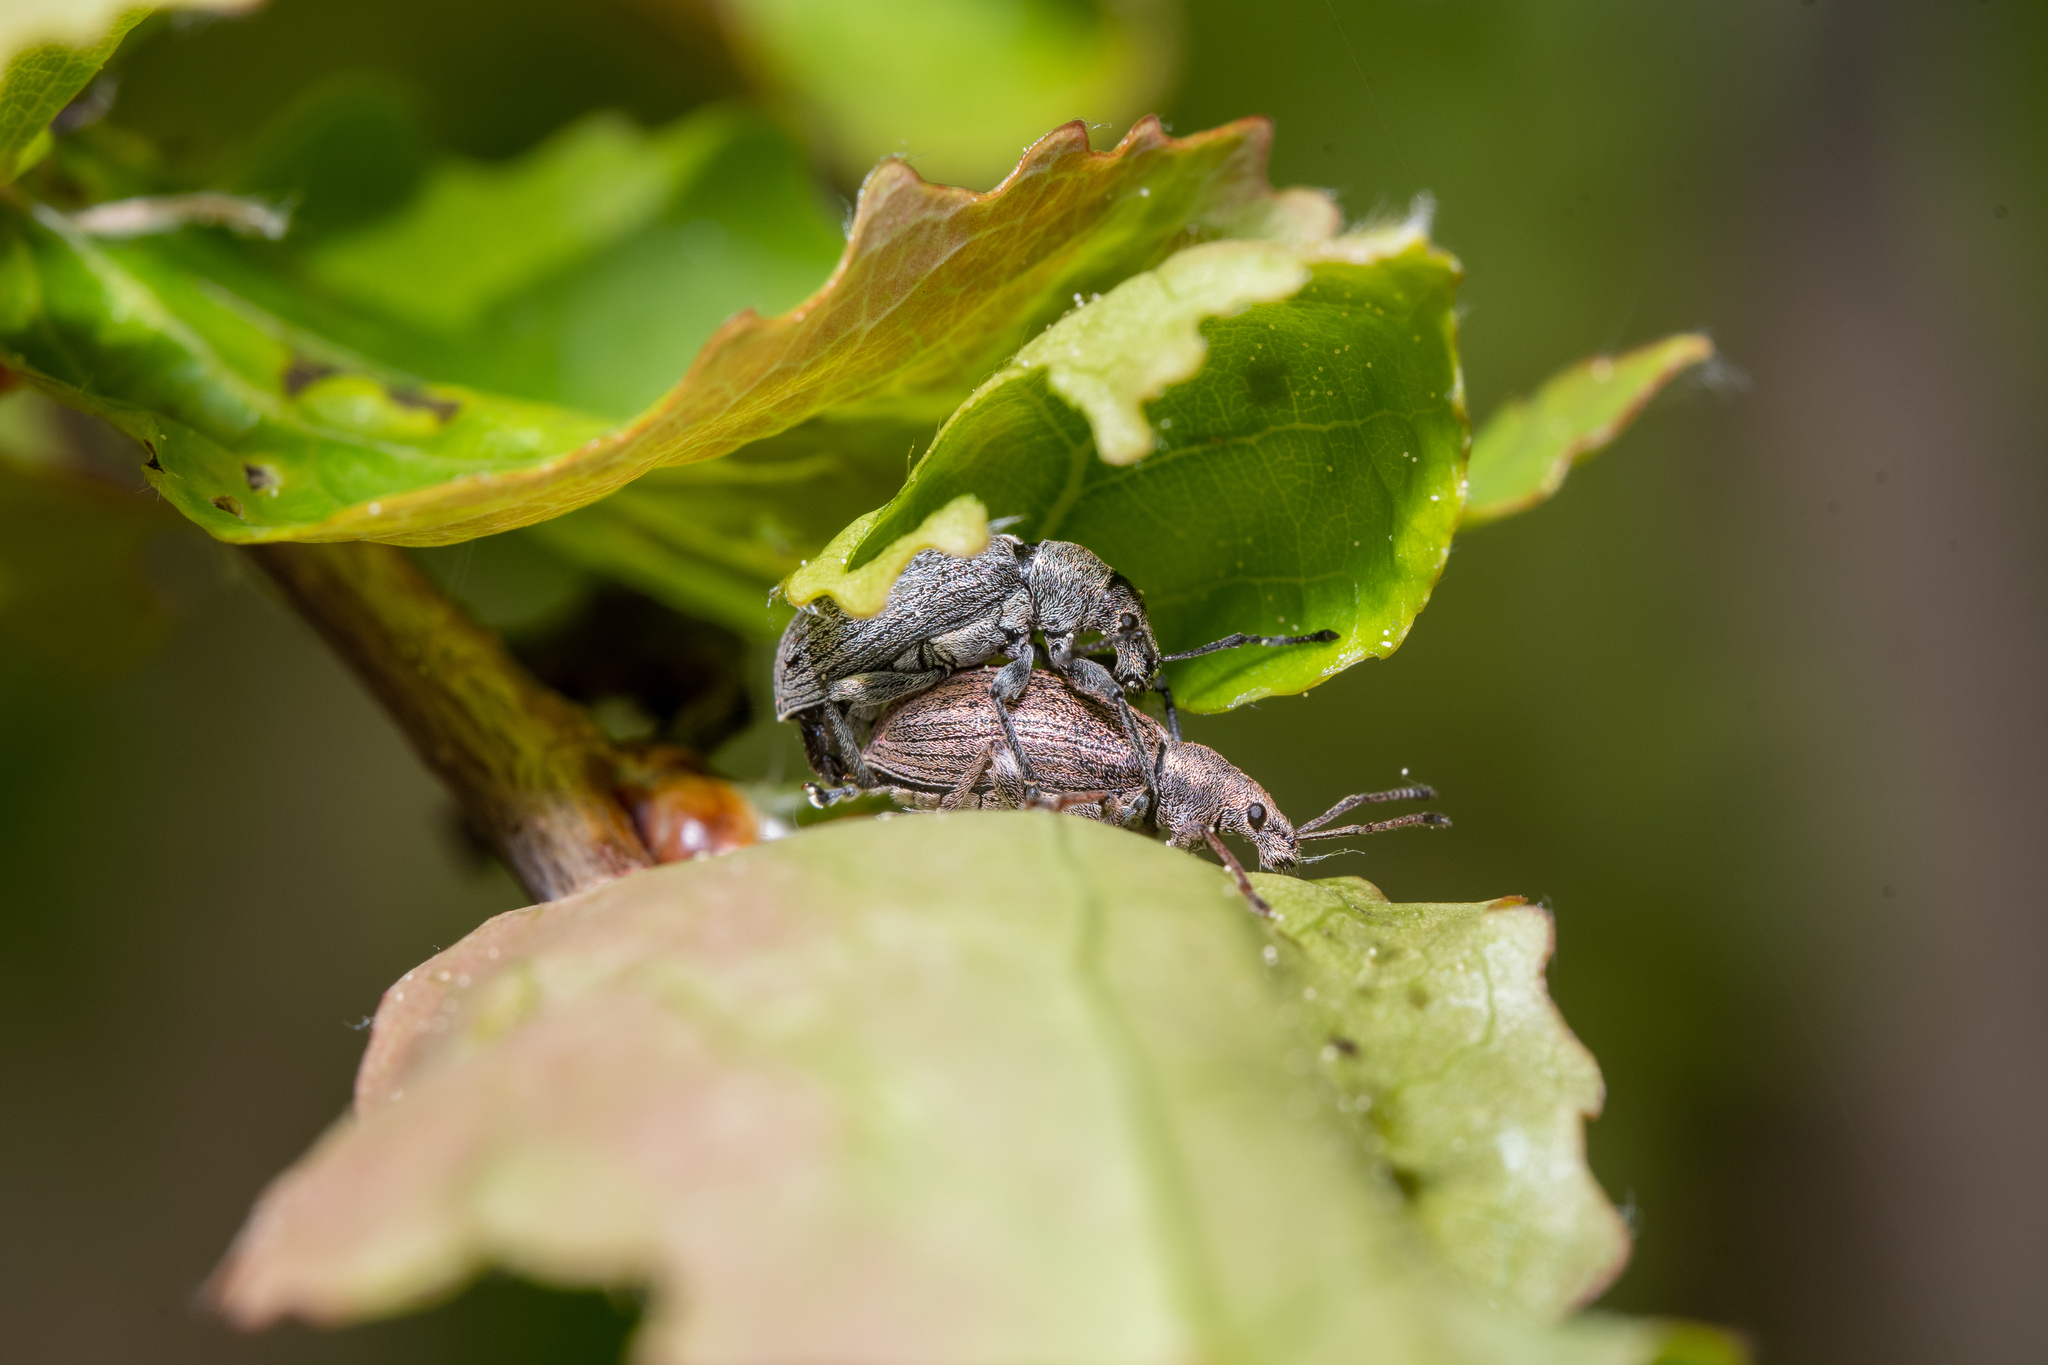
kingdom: Animalia
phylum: Arthropoda
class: Insecta
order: Coleoptera
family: Curculionidae
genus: Phyllobius
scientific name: Phyllobius pyri
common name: Common leaf weevil
